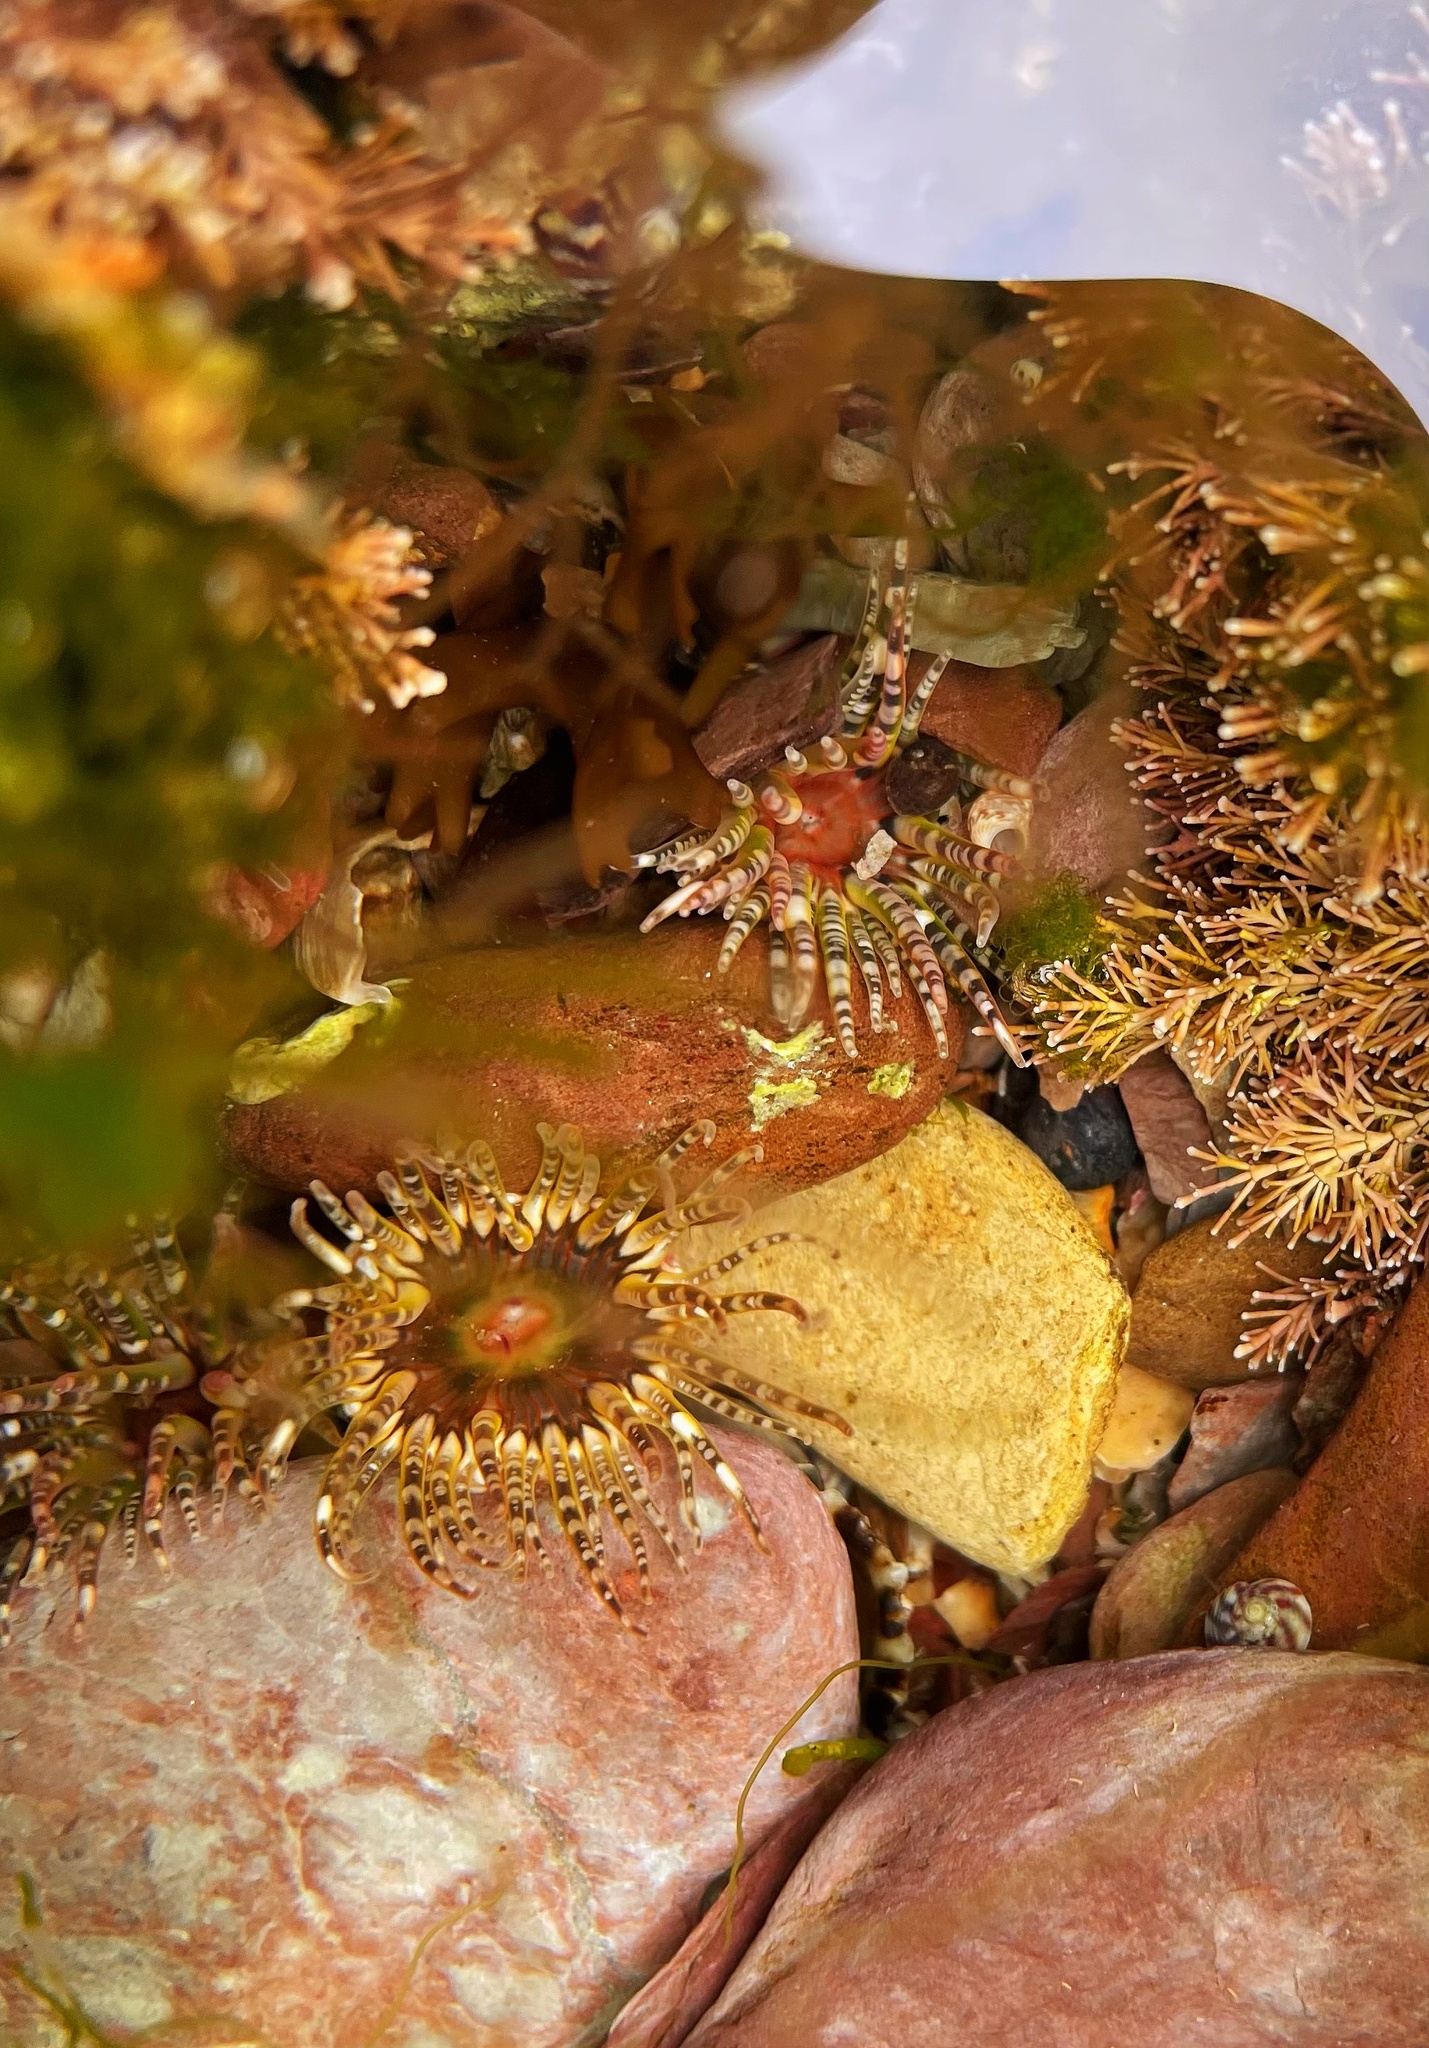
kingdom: Animalia
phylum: Cnidaria
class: Anthozoa
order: Actiniaria
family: Actiniidae
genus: Bunodactis
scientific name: Bunodactis verrucosa
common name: Gem anemone
